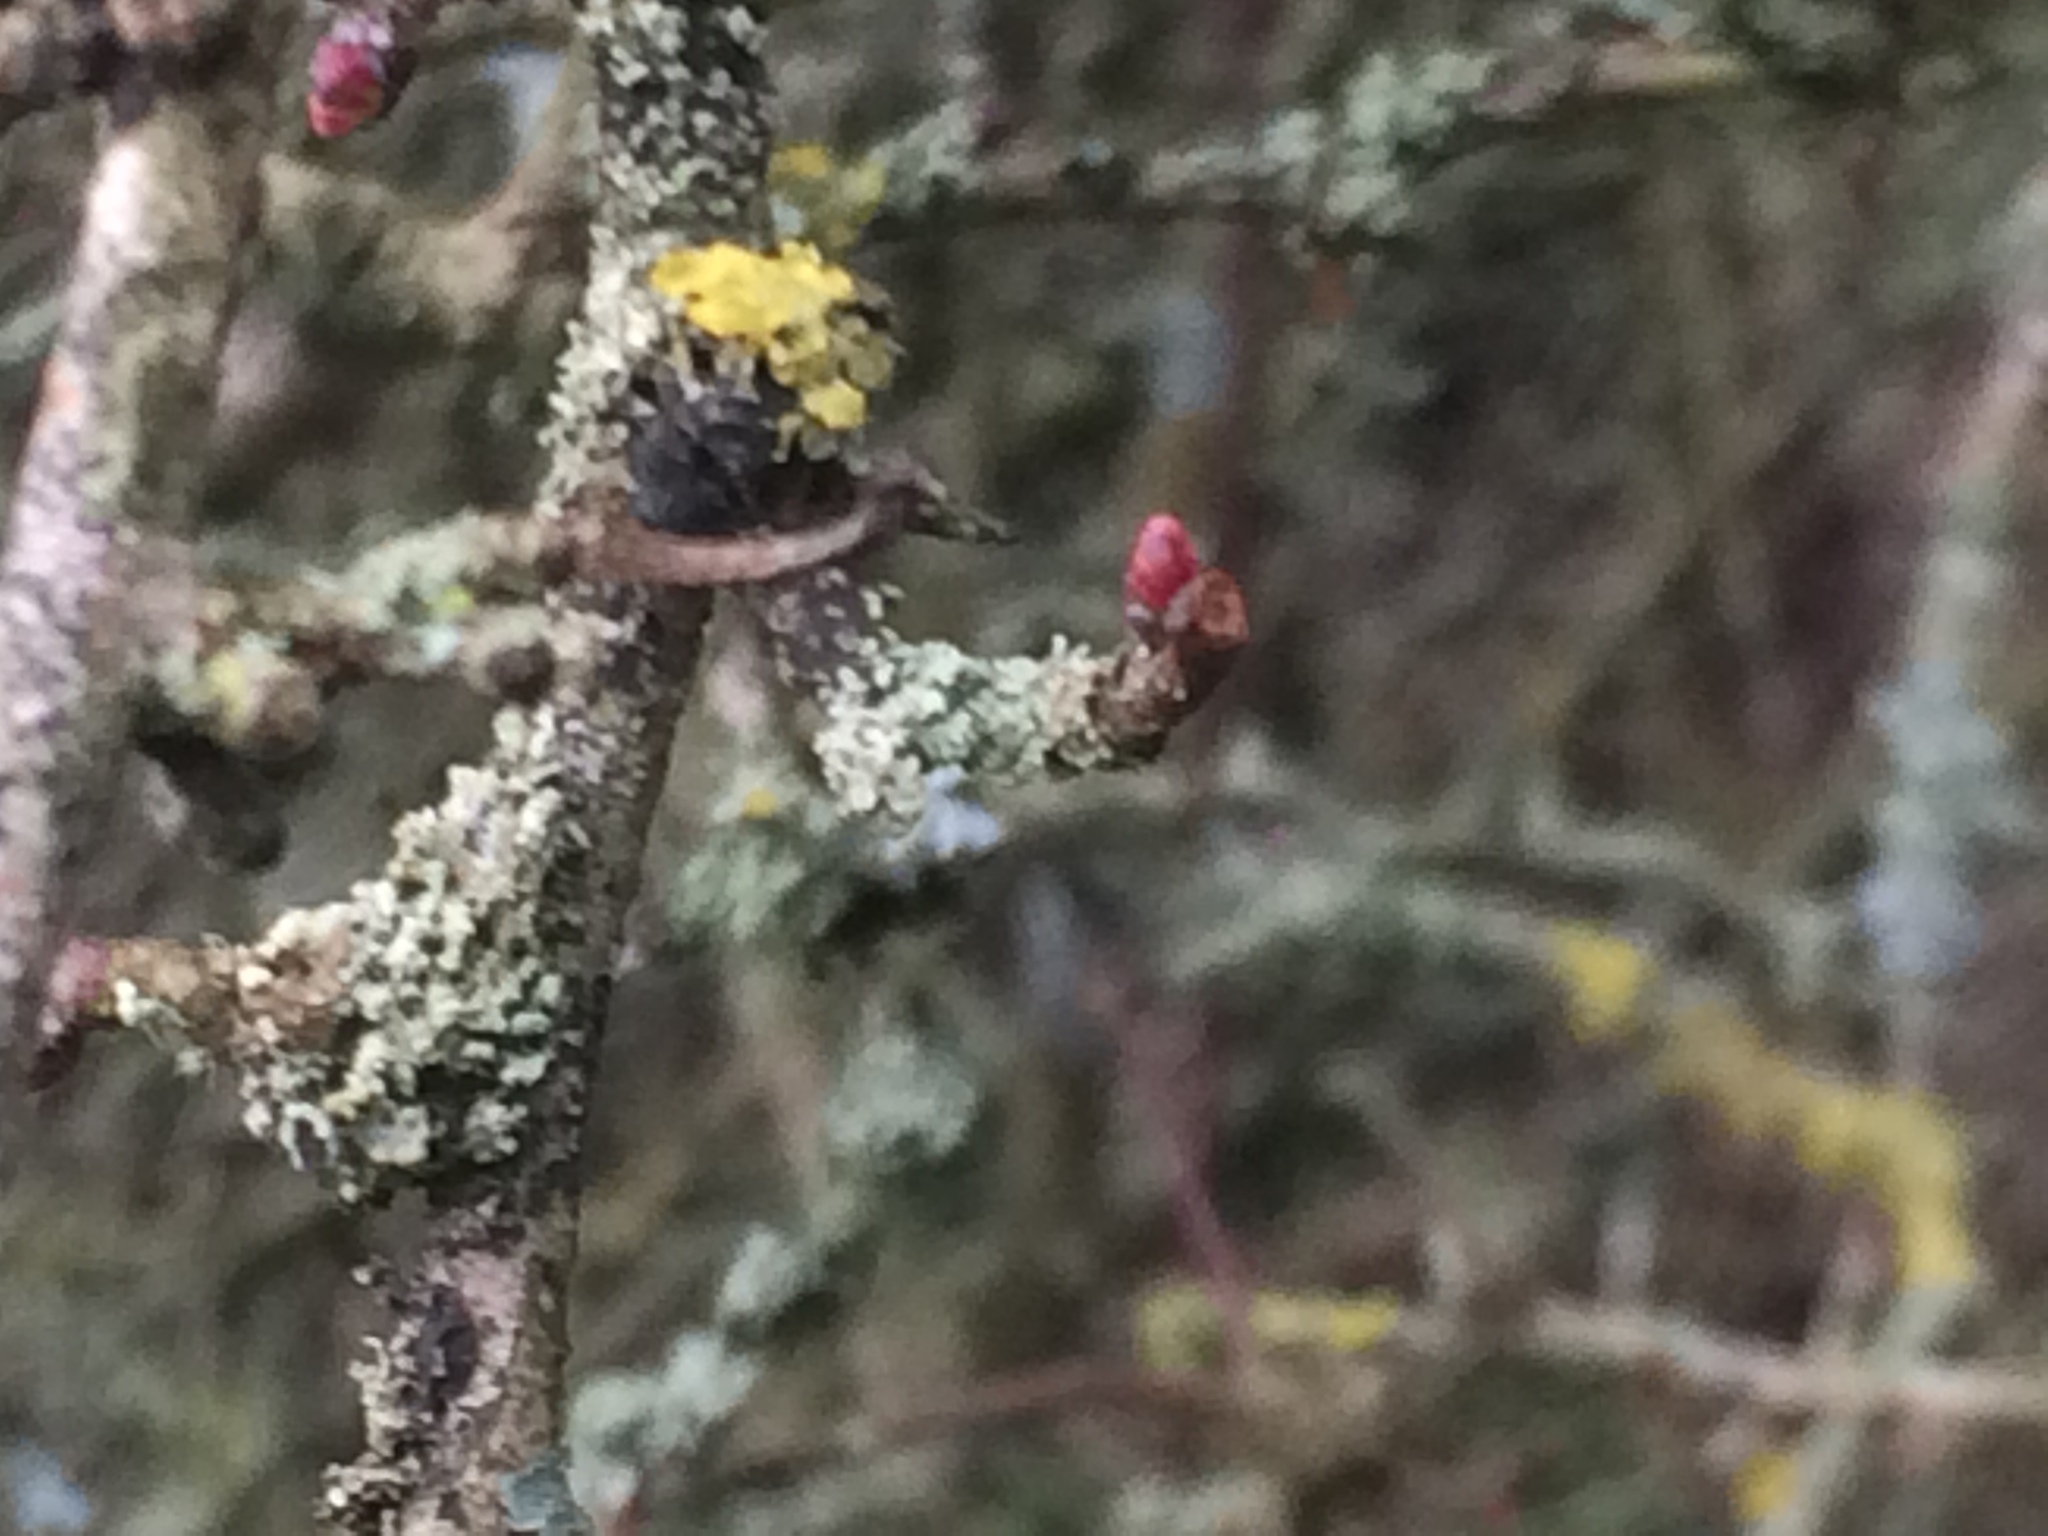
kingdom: Plantae
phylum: Tracheophyta
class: Magnoliopsida
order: Rosales
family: Rosaceae
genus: Crataegus
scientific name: Crataegus monogyna
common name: Hawthorn
